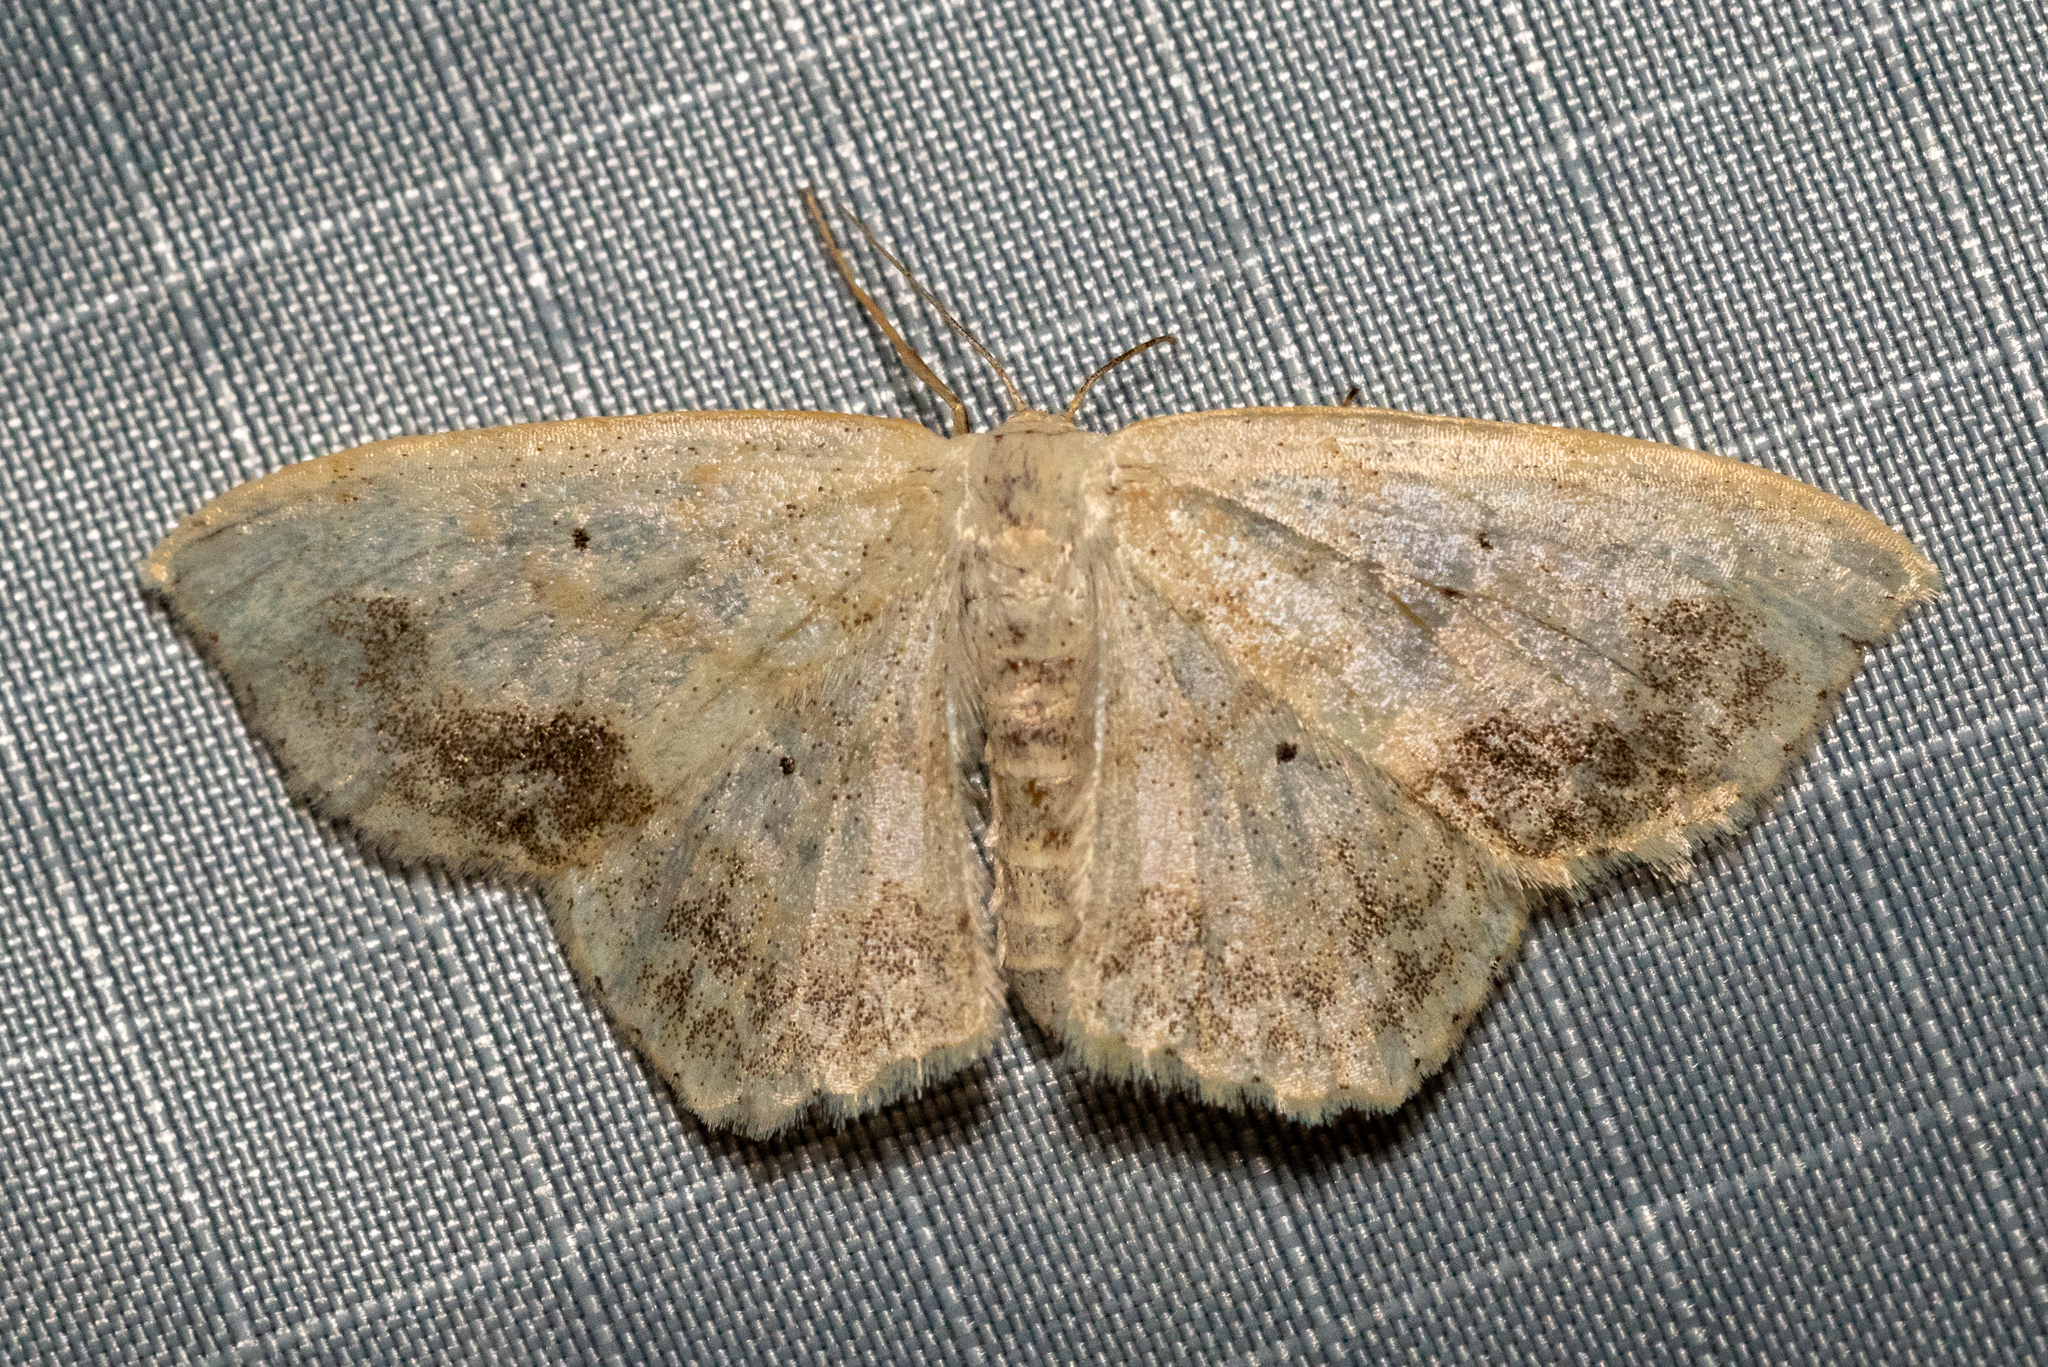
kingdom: Animalia
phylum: Arthropoda
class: Insecta
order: Lepidoptera
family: Geometridae
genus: Scopula
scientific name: Scopula limboundata
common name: Large lace border
